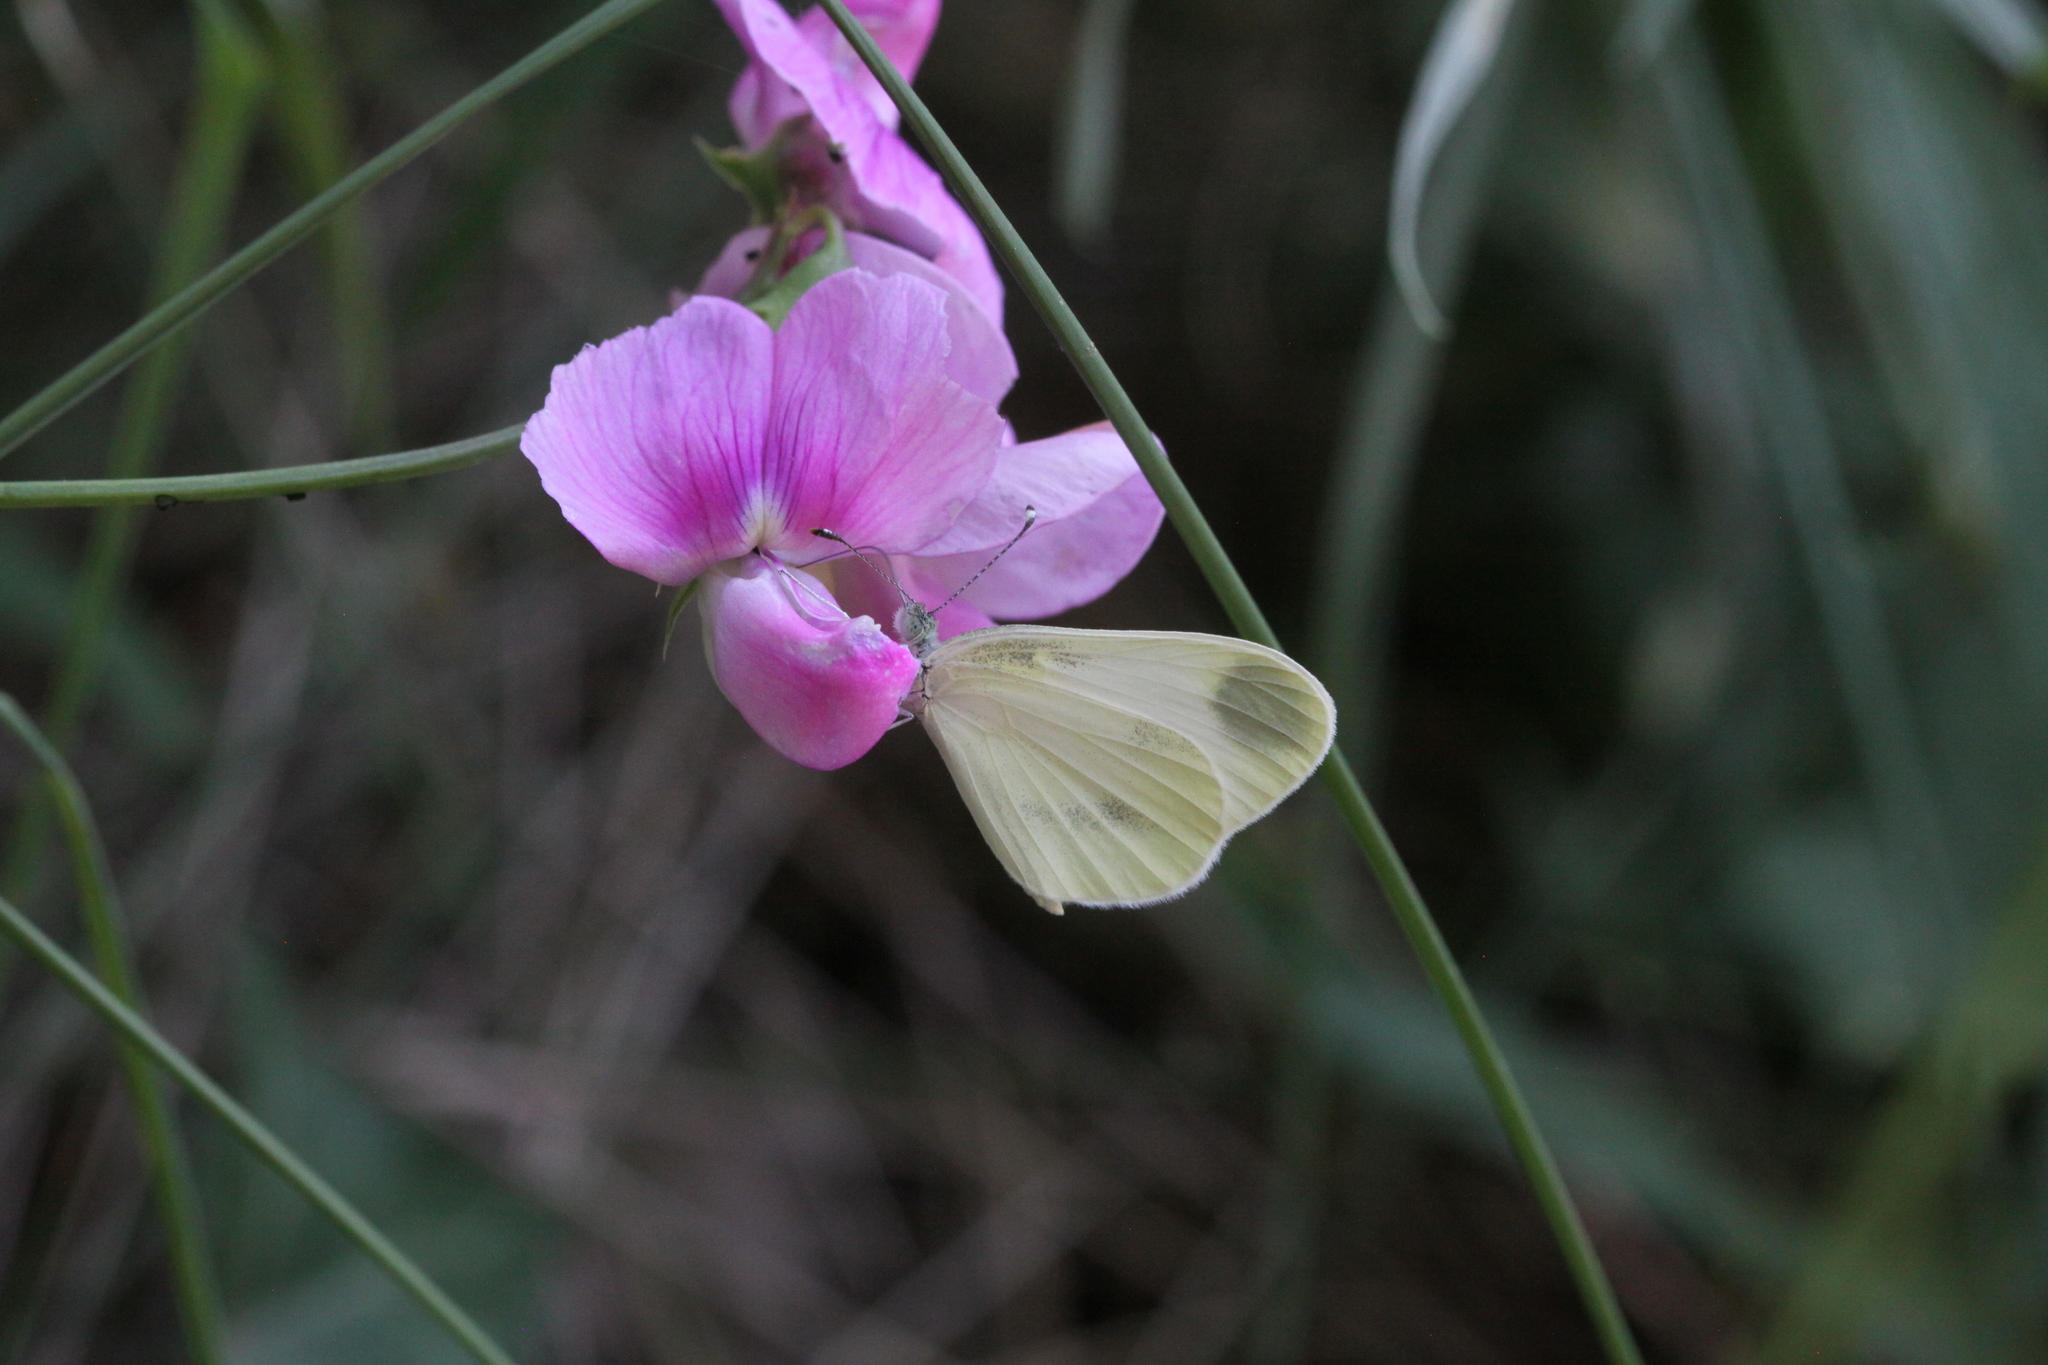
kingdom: Animalia
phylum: Arthropoda
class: Insecta
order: Lepidoptera
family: Pieridae
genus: Leptidea
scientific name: Leptidea sinapis
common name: Wood white
